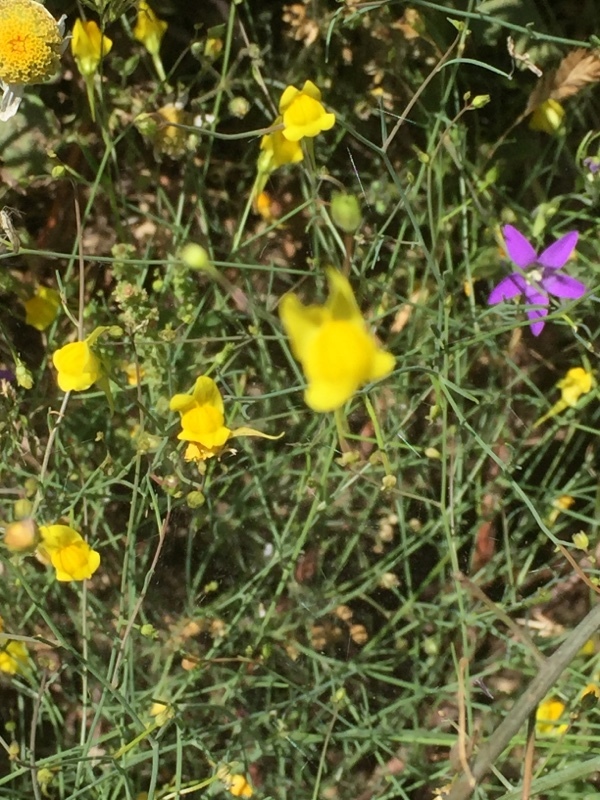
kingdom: Plantae
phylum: Tracheophyta
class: Magnoliopsida
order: Lamiales
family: Plantaginaceae
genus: Linaria
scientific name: Linaria spartea
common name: Ballast toadflax
